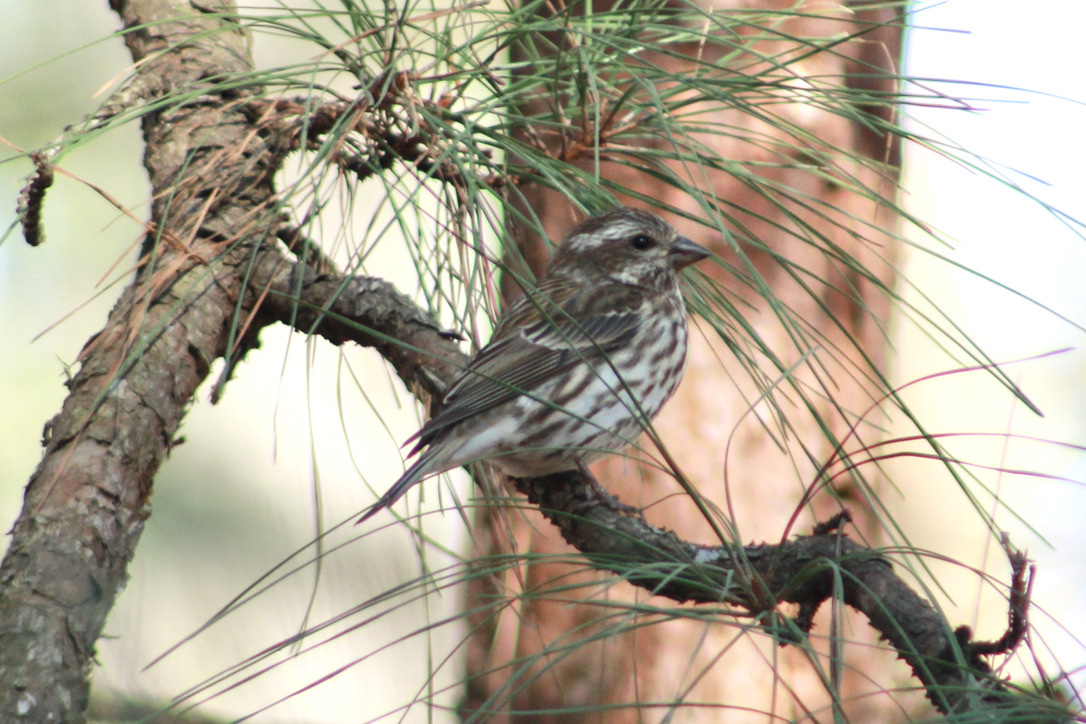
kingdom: Animalia
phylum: Chordata
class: Aves
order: Passeriformes
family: Fringillidae
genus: Haemorhous
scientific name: Haemorhous purpureus
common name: Purple finch
